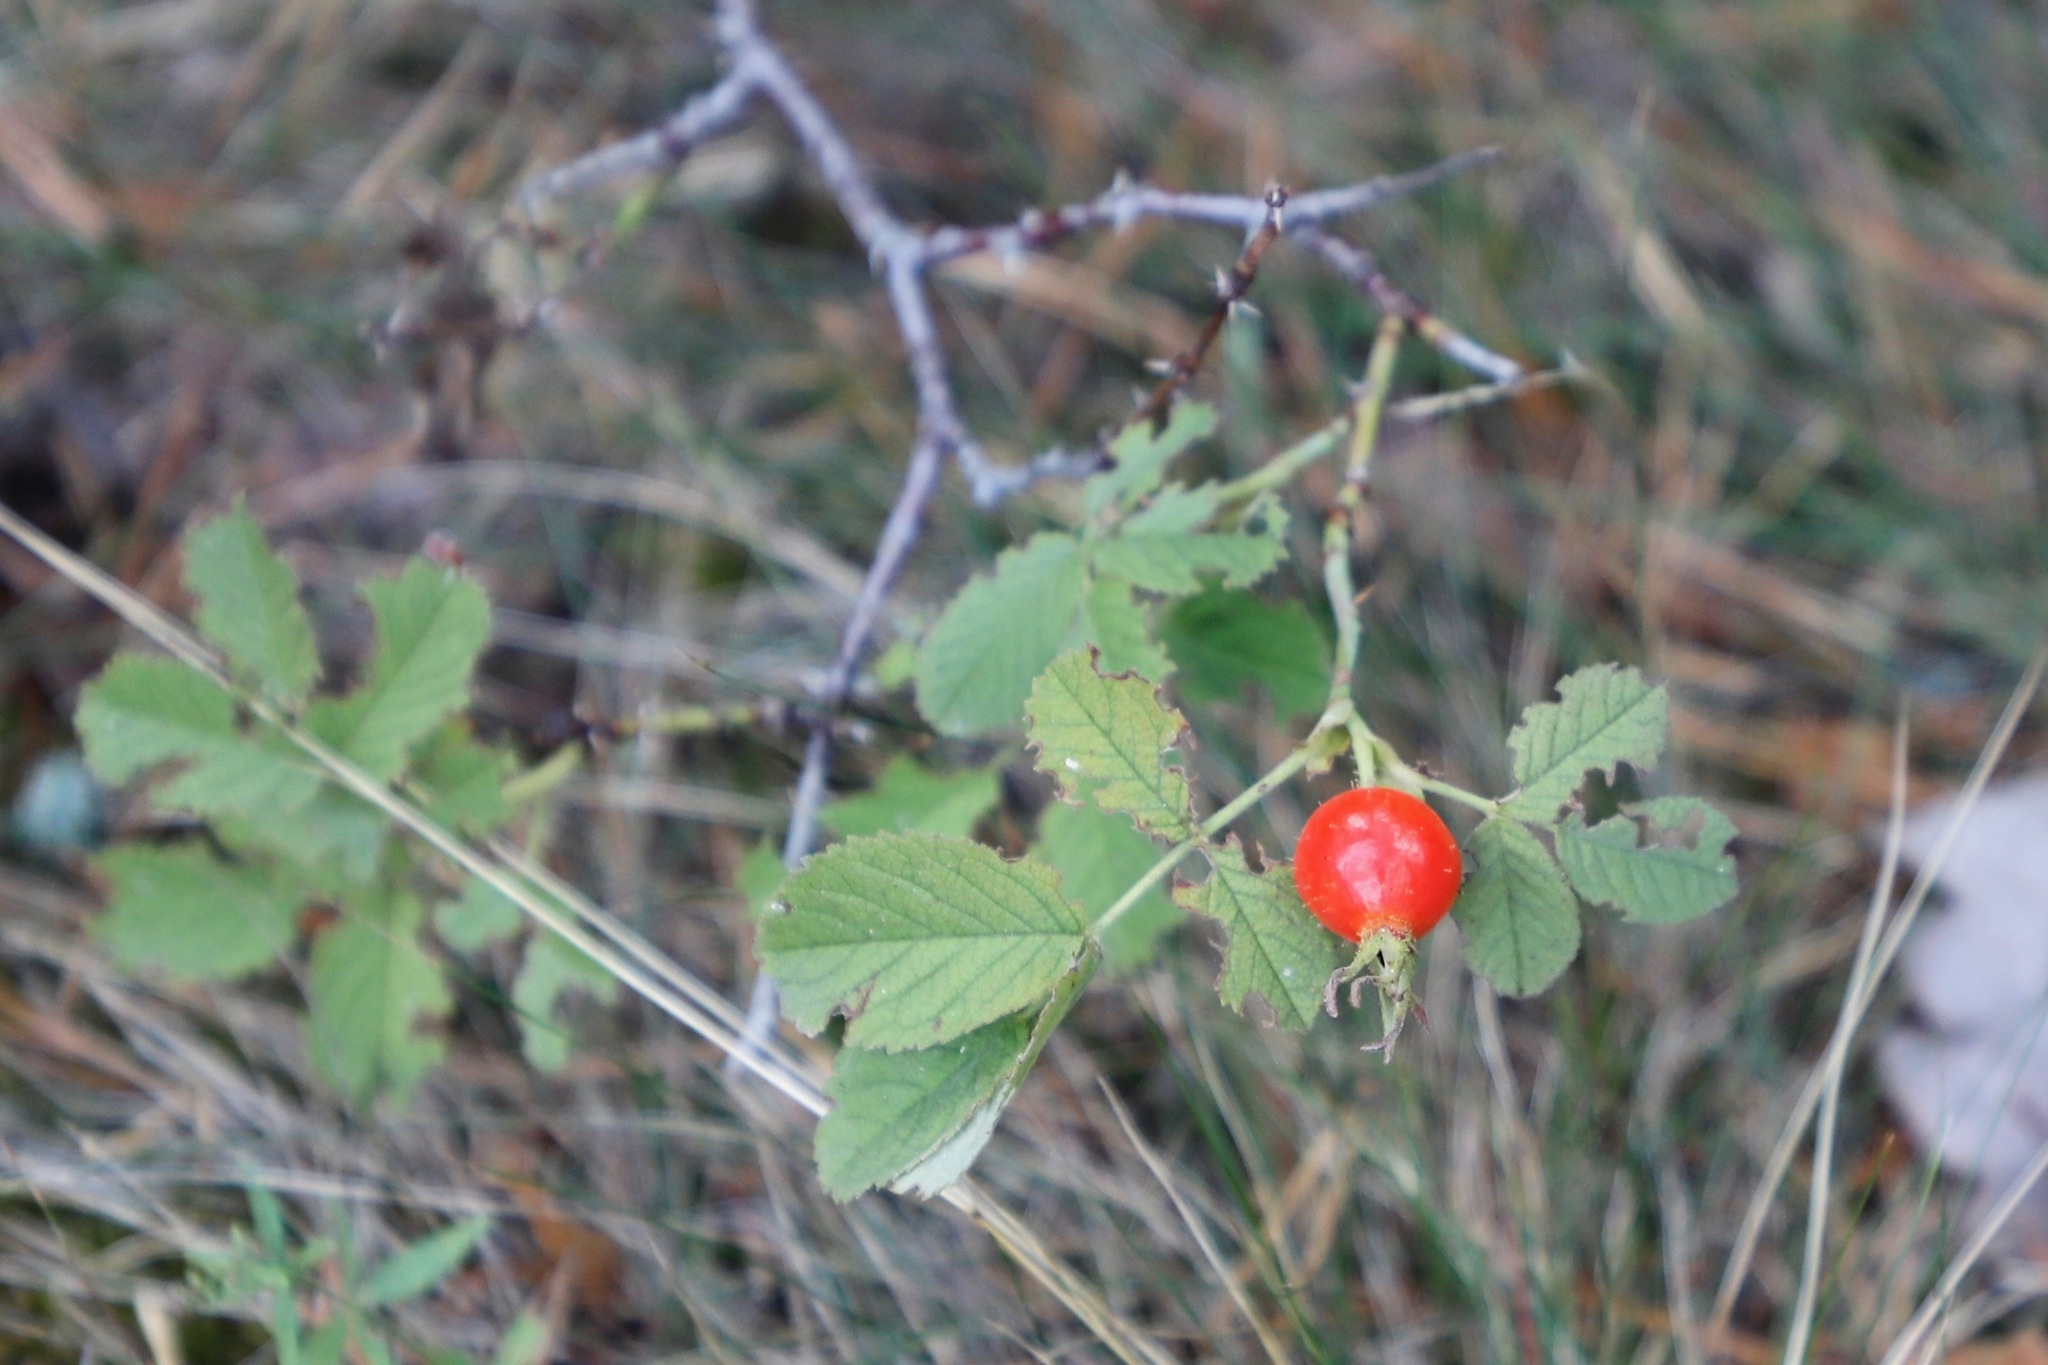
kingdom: Plantae
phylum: Tracheophyta
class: Magnoliopsida
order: Rosales
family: Rosaceae
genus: Rosa
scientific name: Rosa villosa
